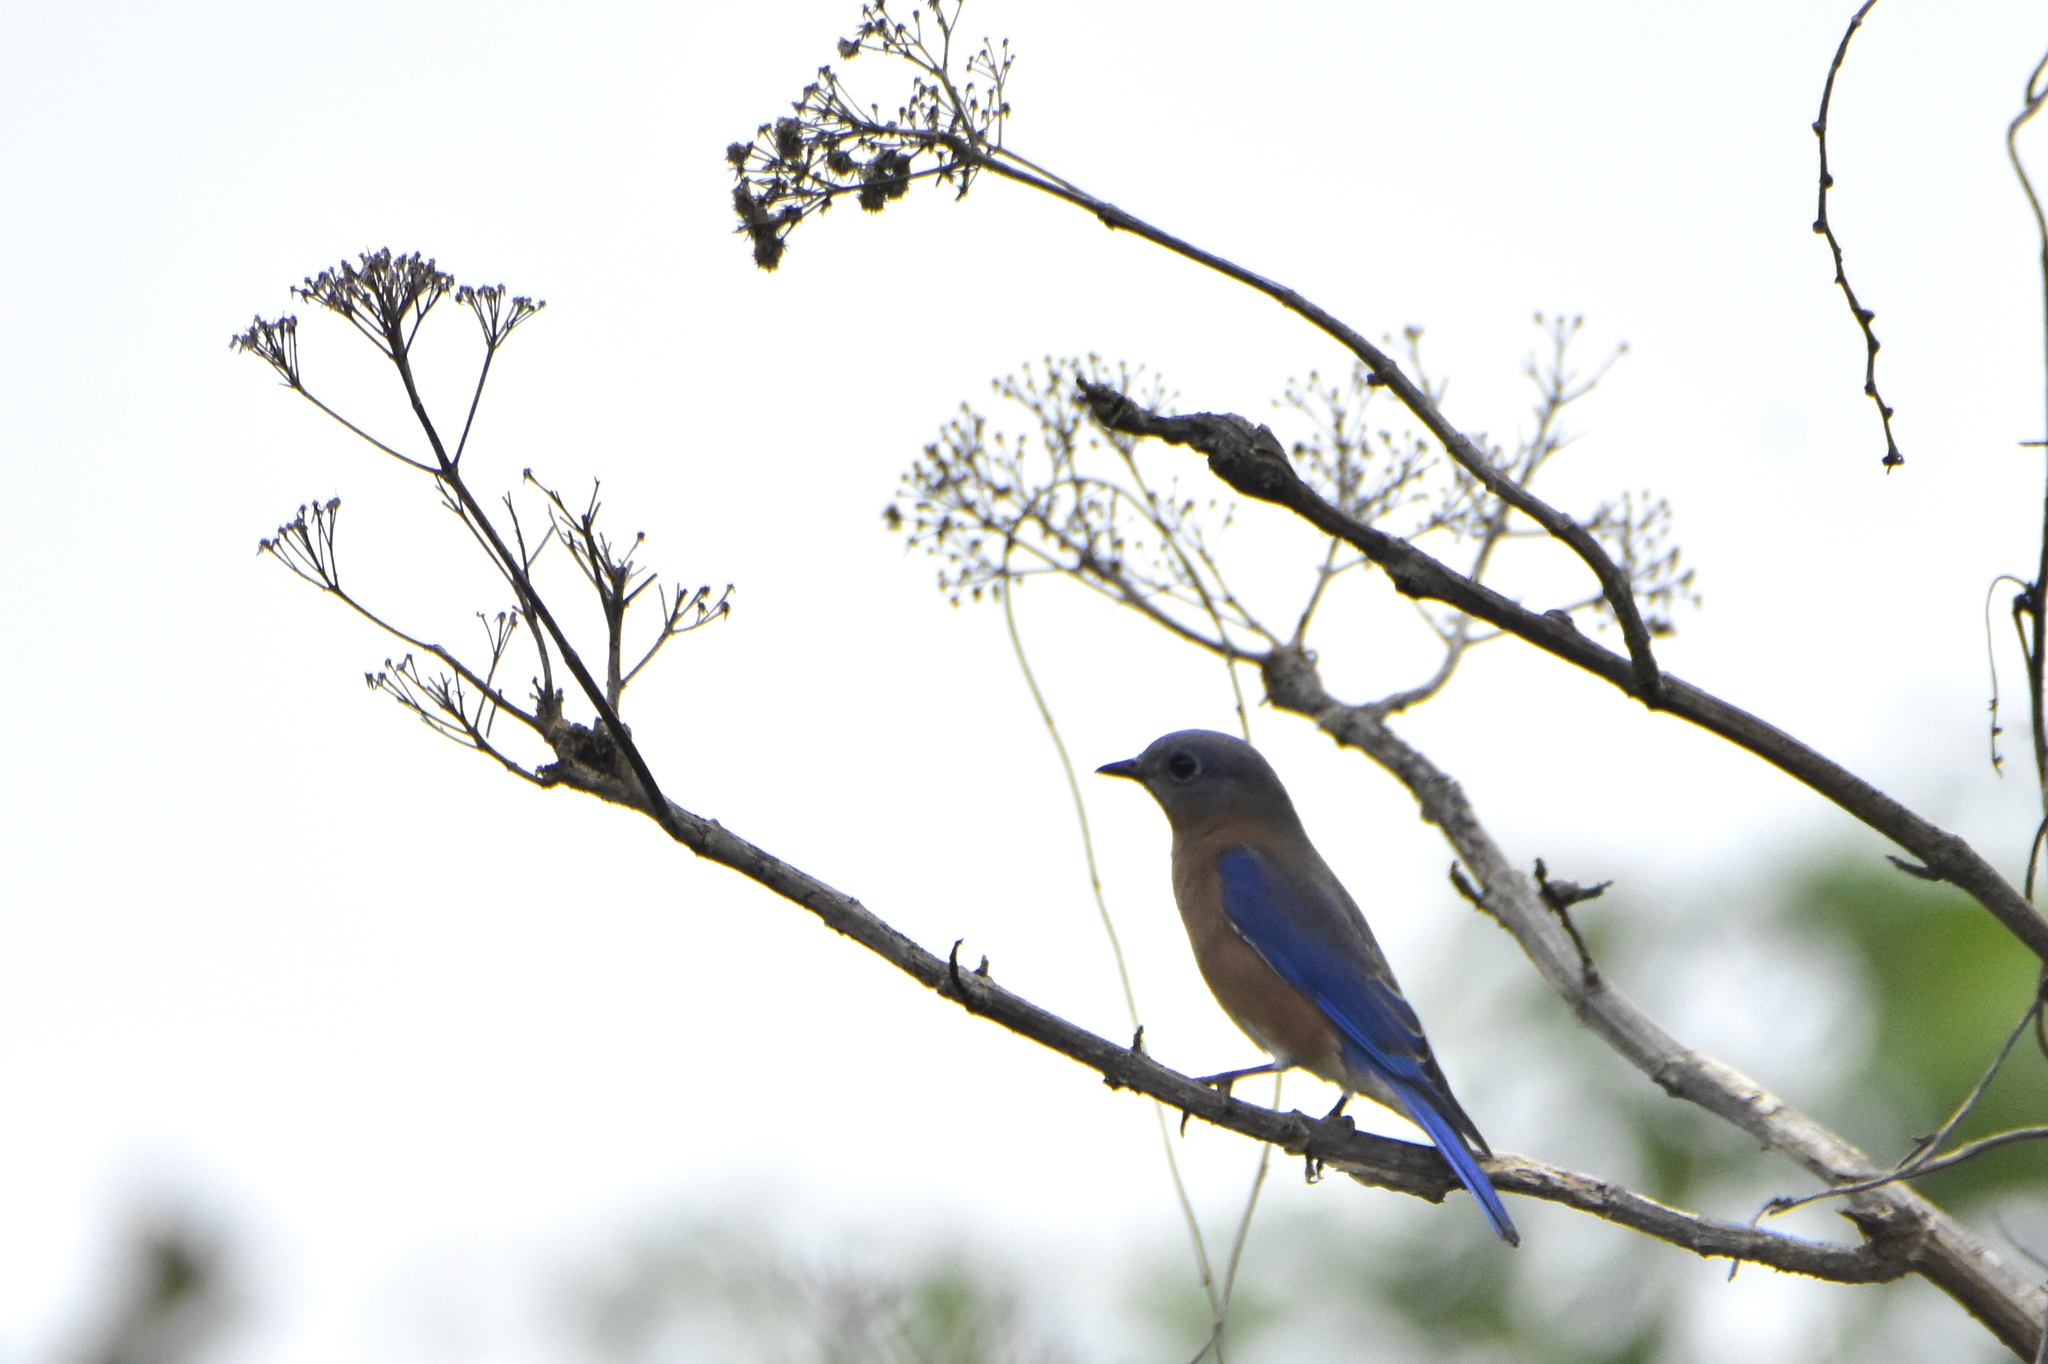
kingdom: Animalia
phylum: Chordata
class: Aves
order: Passeriformes
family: Turdidae
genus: Sialia
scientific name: Sialia mexicana
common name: Western bluebird
